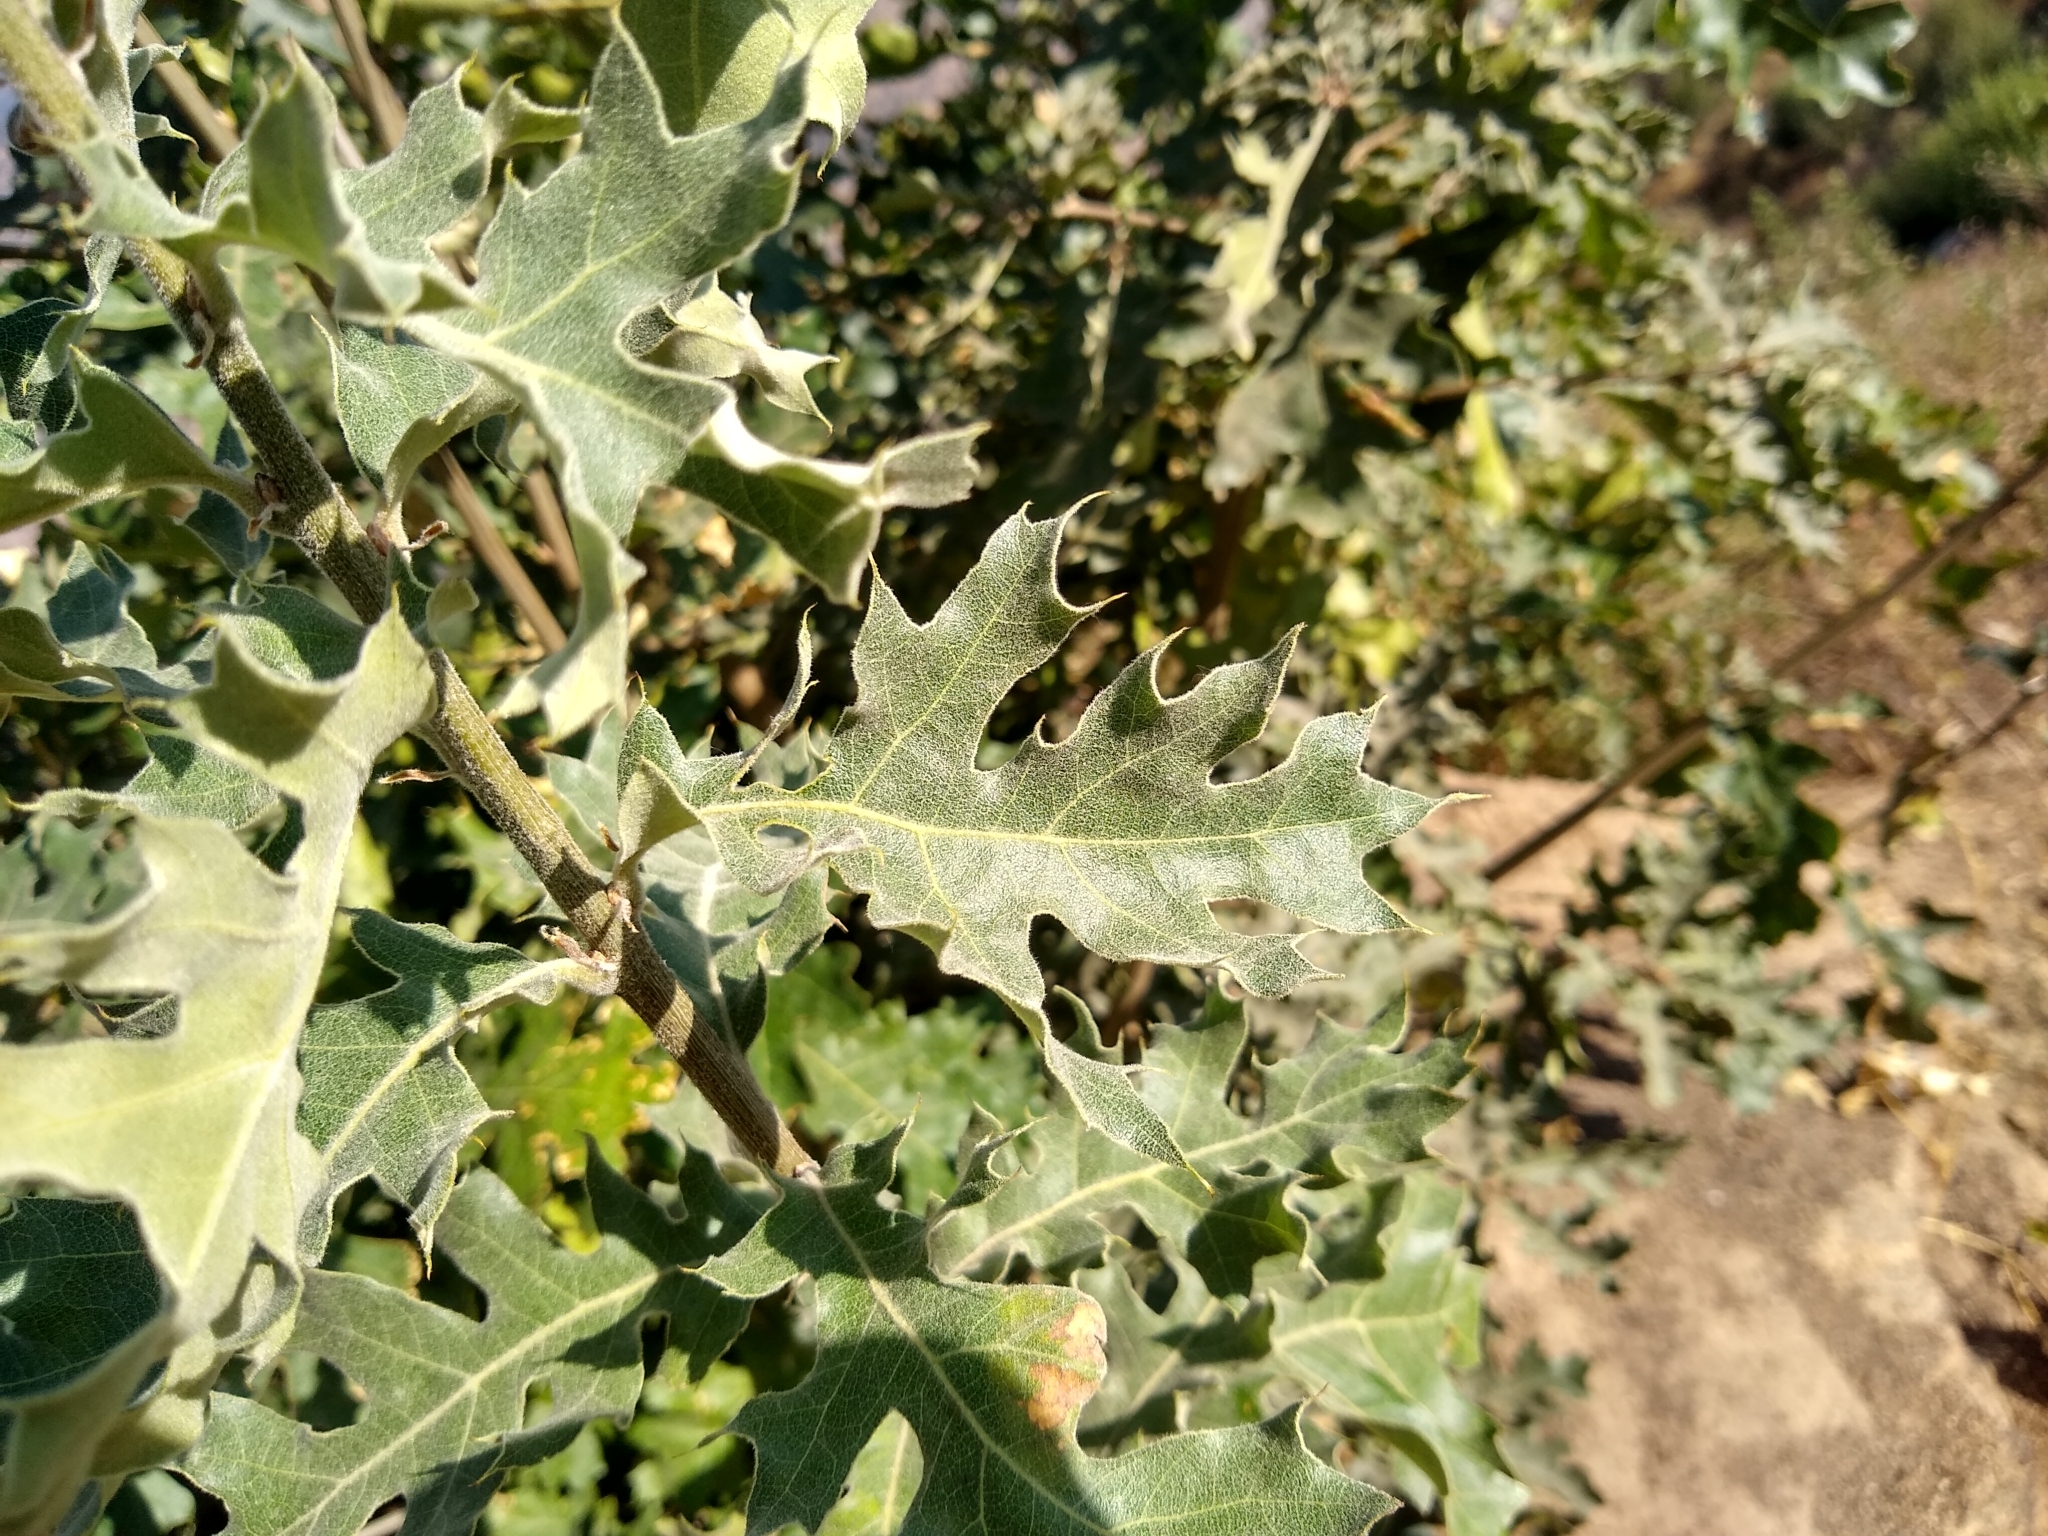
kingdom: Plantae
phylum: Tracheophyta
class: Magnoliopsida
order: Fagales
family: Fagaceae
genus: Quercus
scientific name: Quercus kelloggii
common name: California black oak
